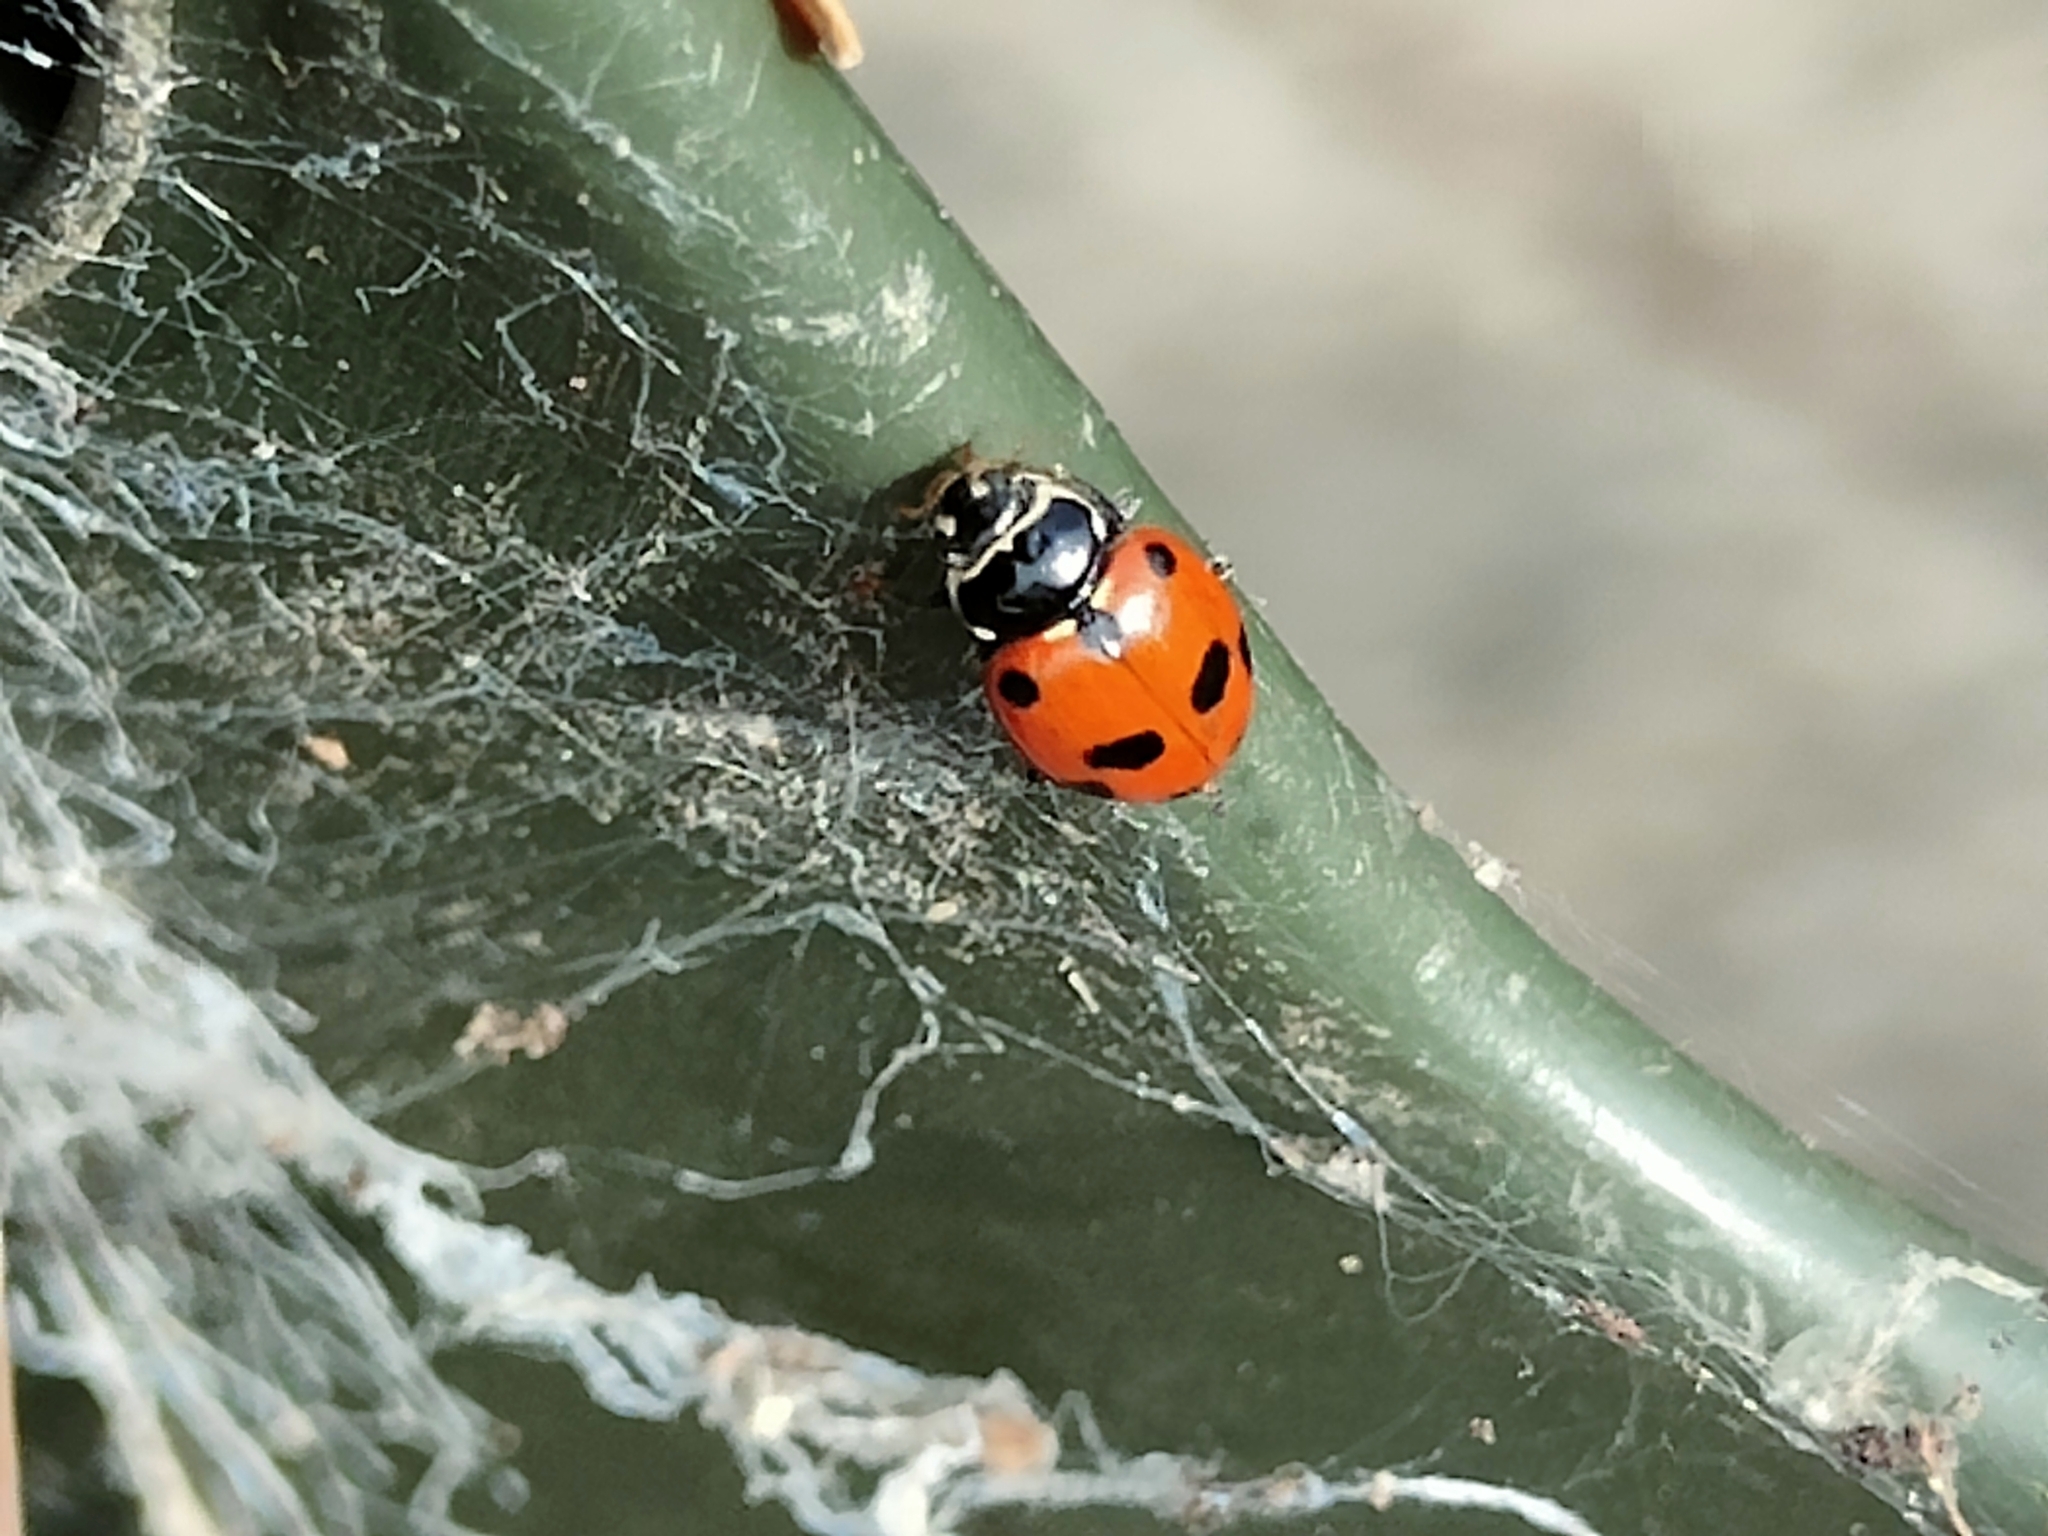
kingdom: Animalia
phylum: Arthropoda
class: Insecta
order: Coleoptera
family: Coccinellidae
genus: Hippodamia
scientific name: Hippodamia variegata
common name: Ladybird beetle
